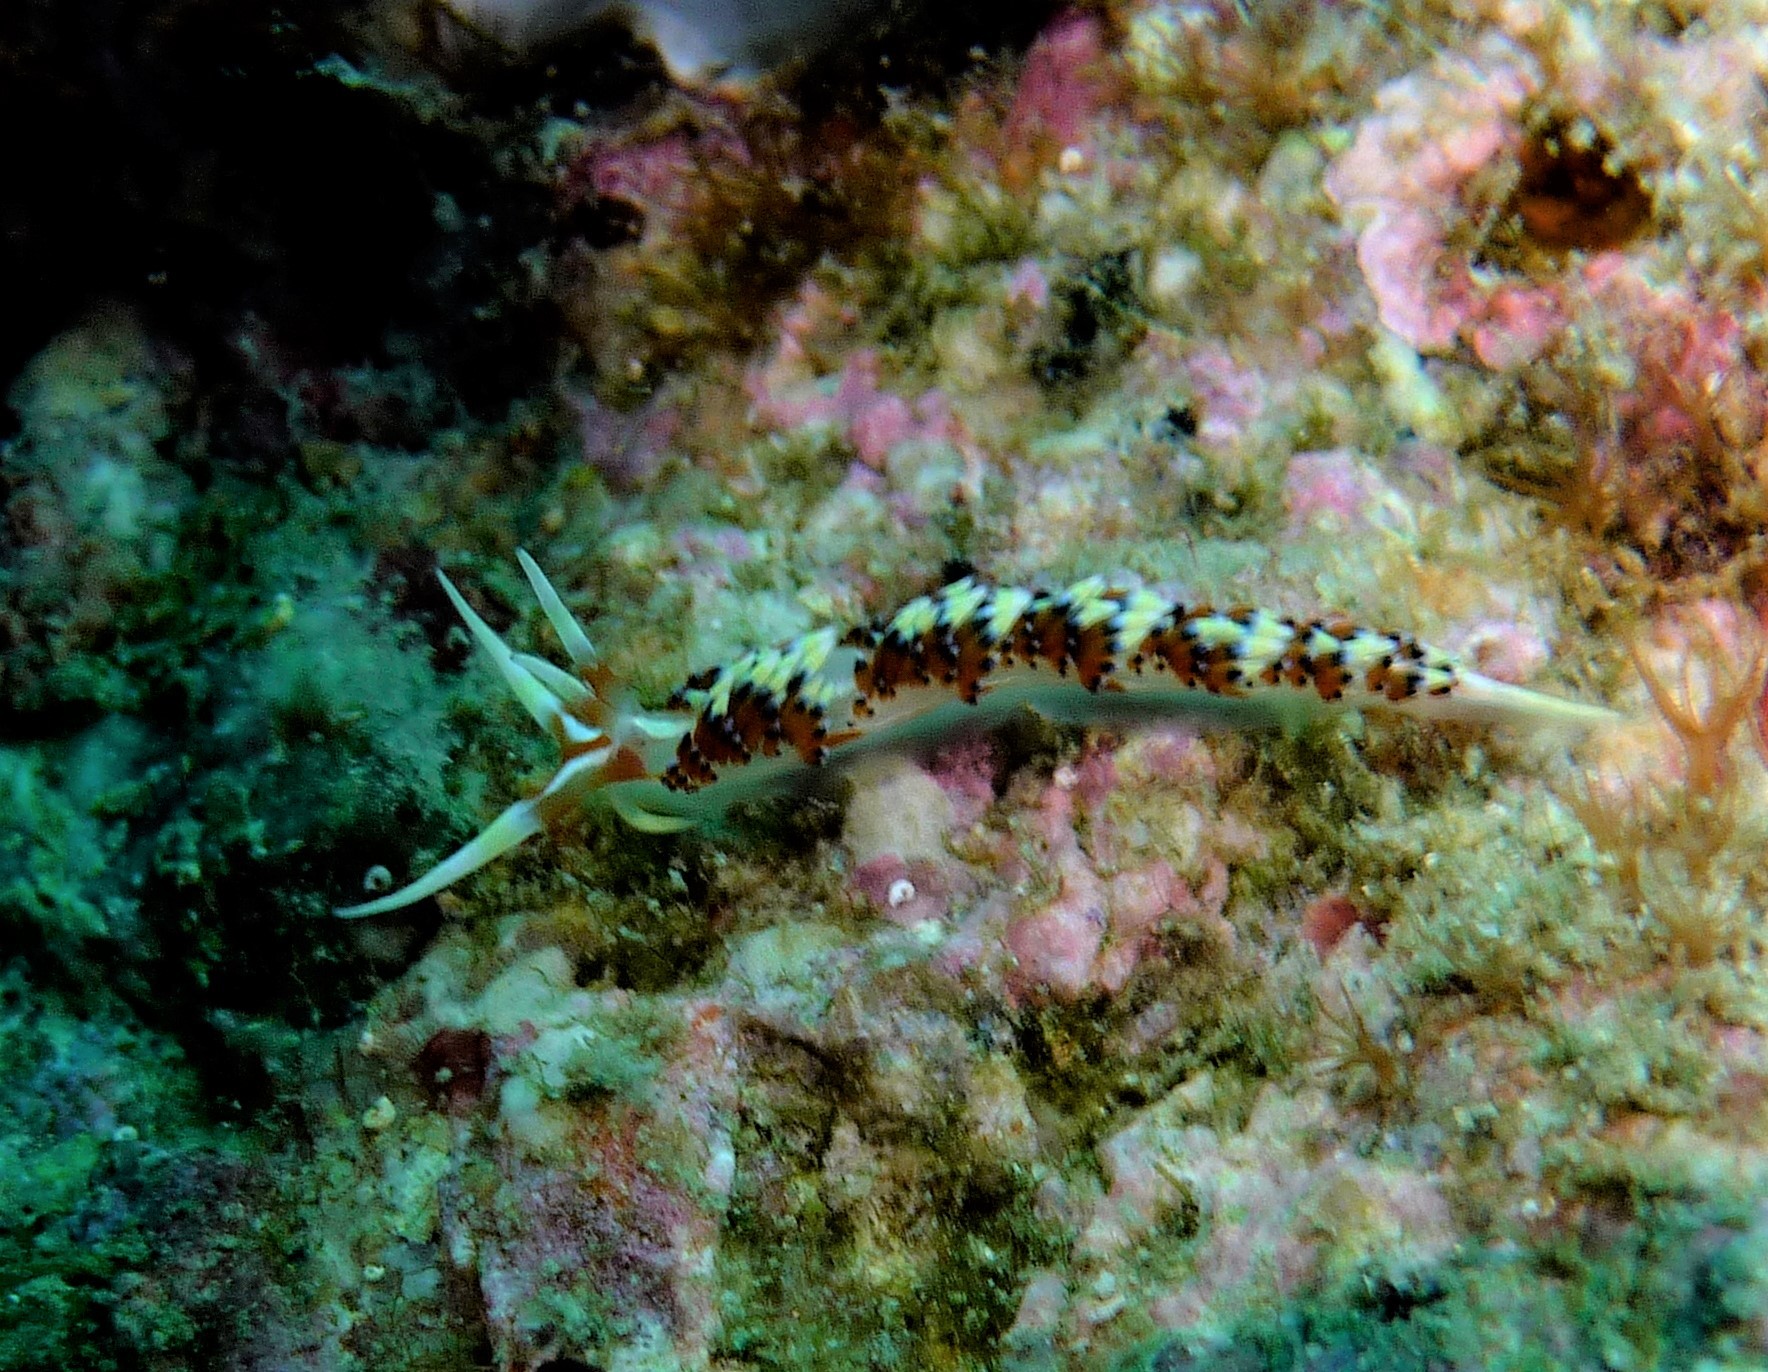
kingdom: Animalia
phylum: Mollusca
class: Gastropoda
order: Nudibranchia
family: Facelinidae
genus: Caloria
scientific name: Caloria indica
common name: Sea slug
